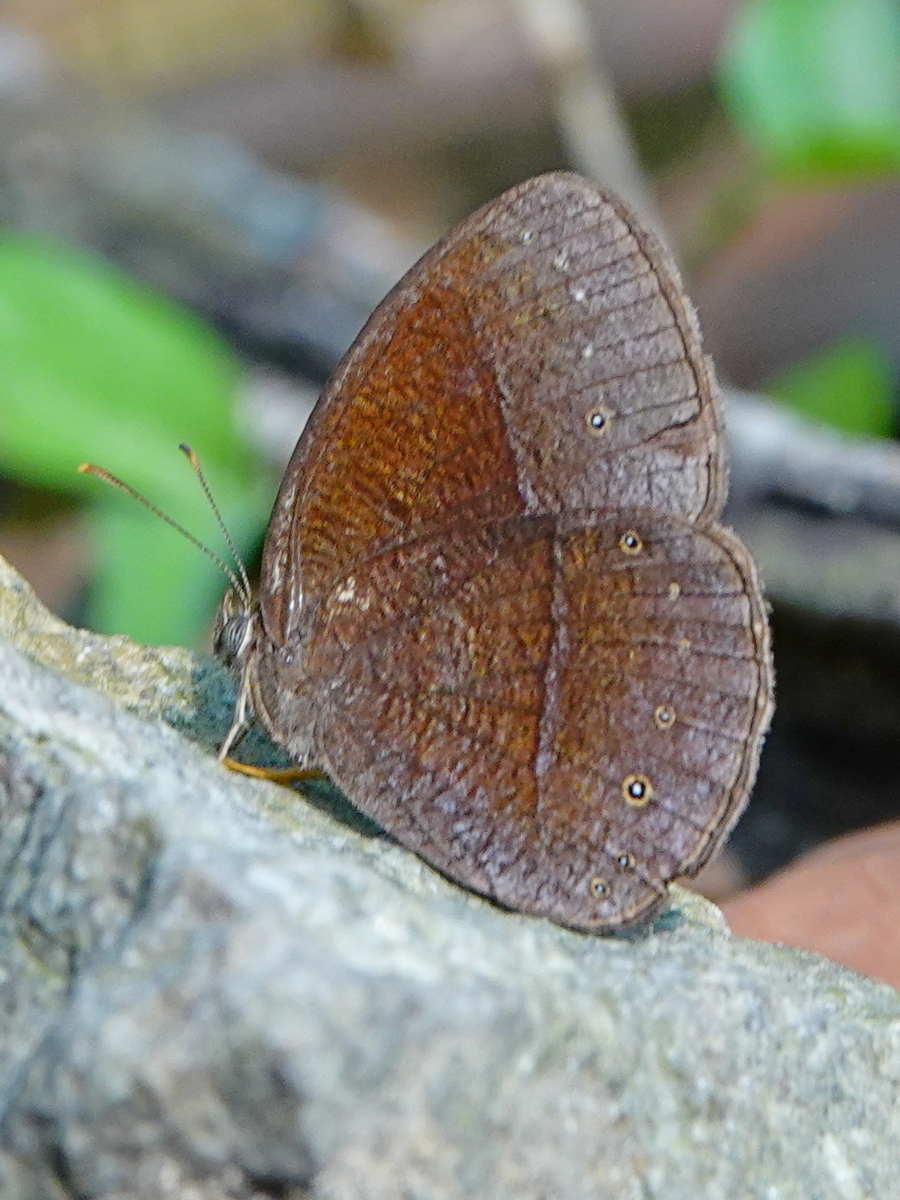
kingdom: Animalia
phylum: Arthropoda
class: Insecta
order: Lepidoptera
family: Nymphalidae
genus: Mycalesis
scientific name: Mycalesis Telinga inopia
